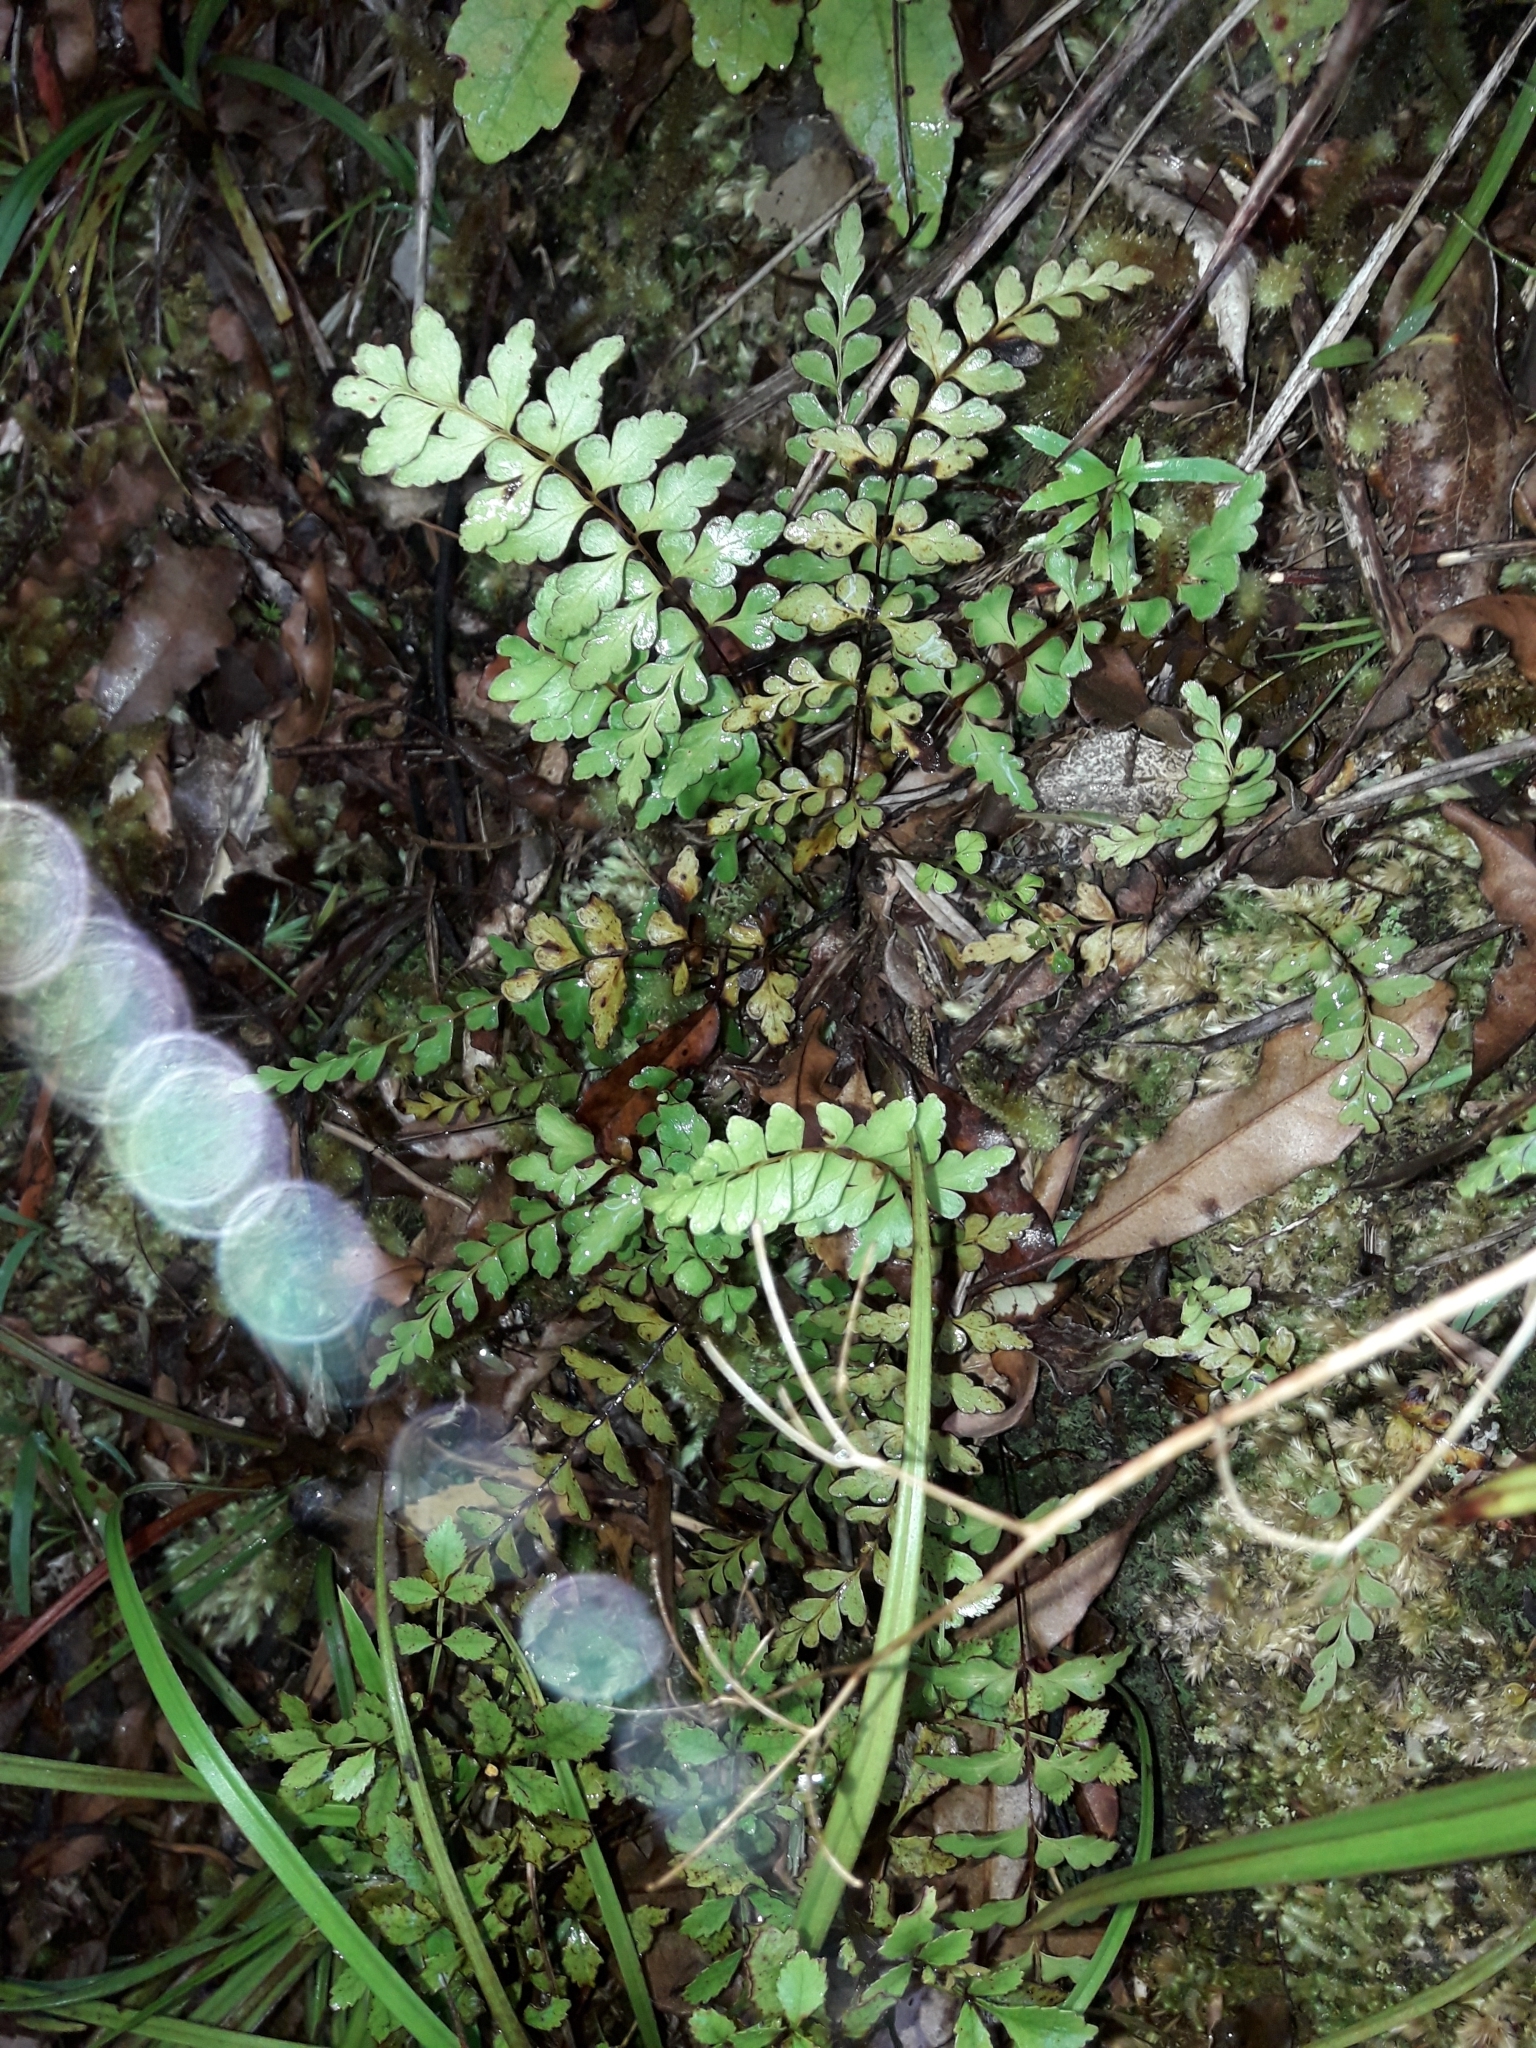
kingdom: Plantae
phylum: Tracheophyta
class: Polypodiopsida
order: Polypodiales
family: Lindsaeaceae
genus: Lindsaea
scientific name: Lindsaea trichomanoides
